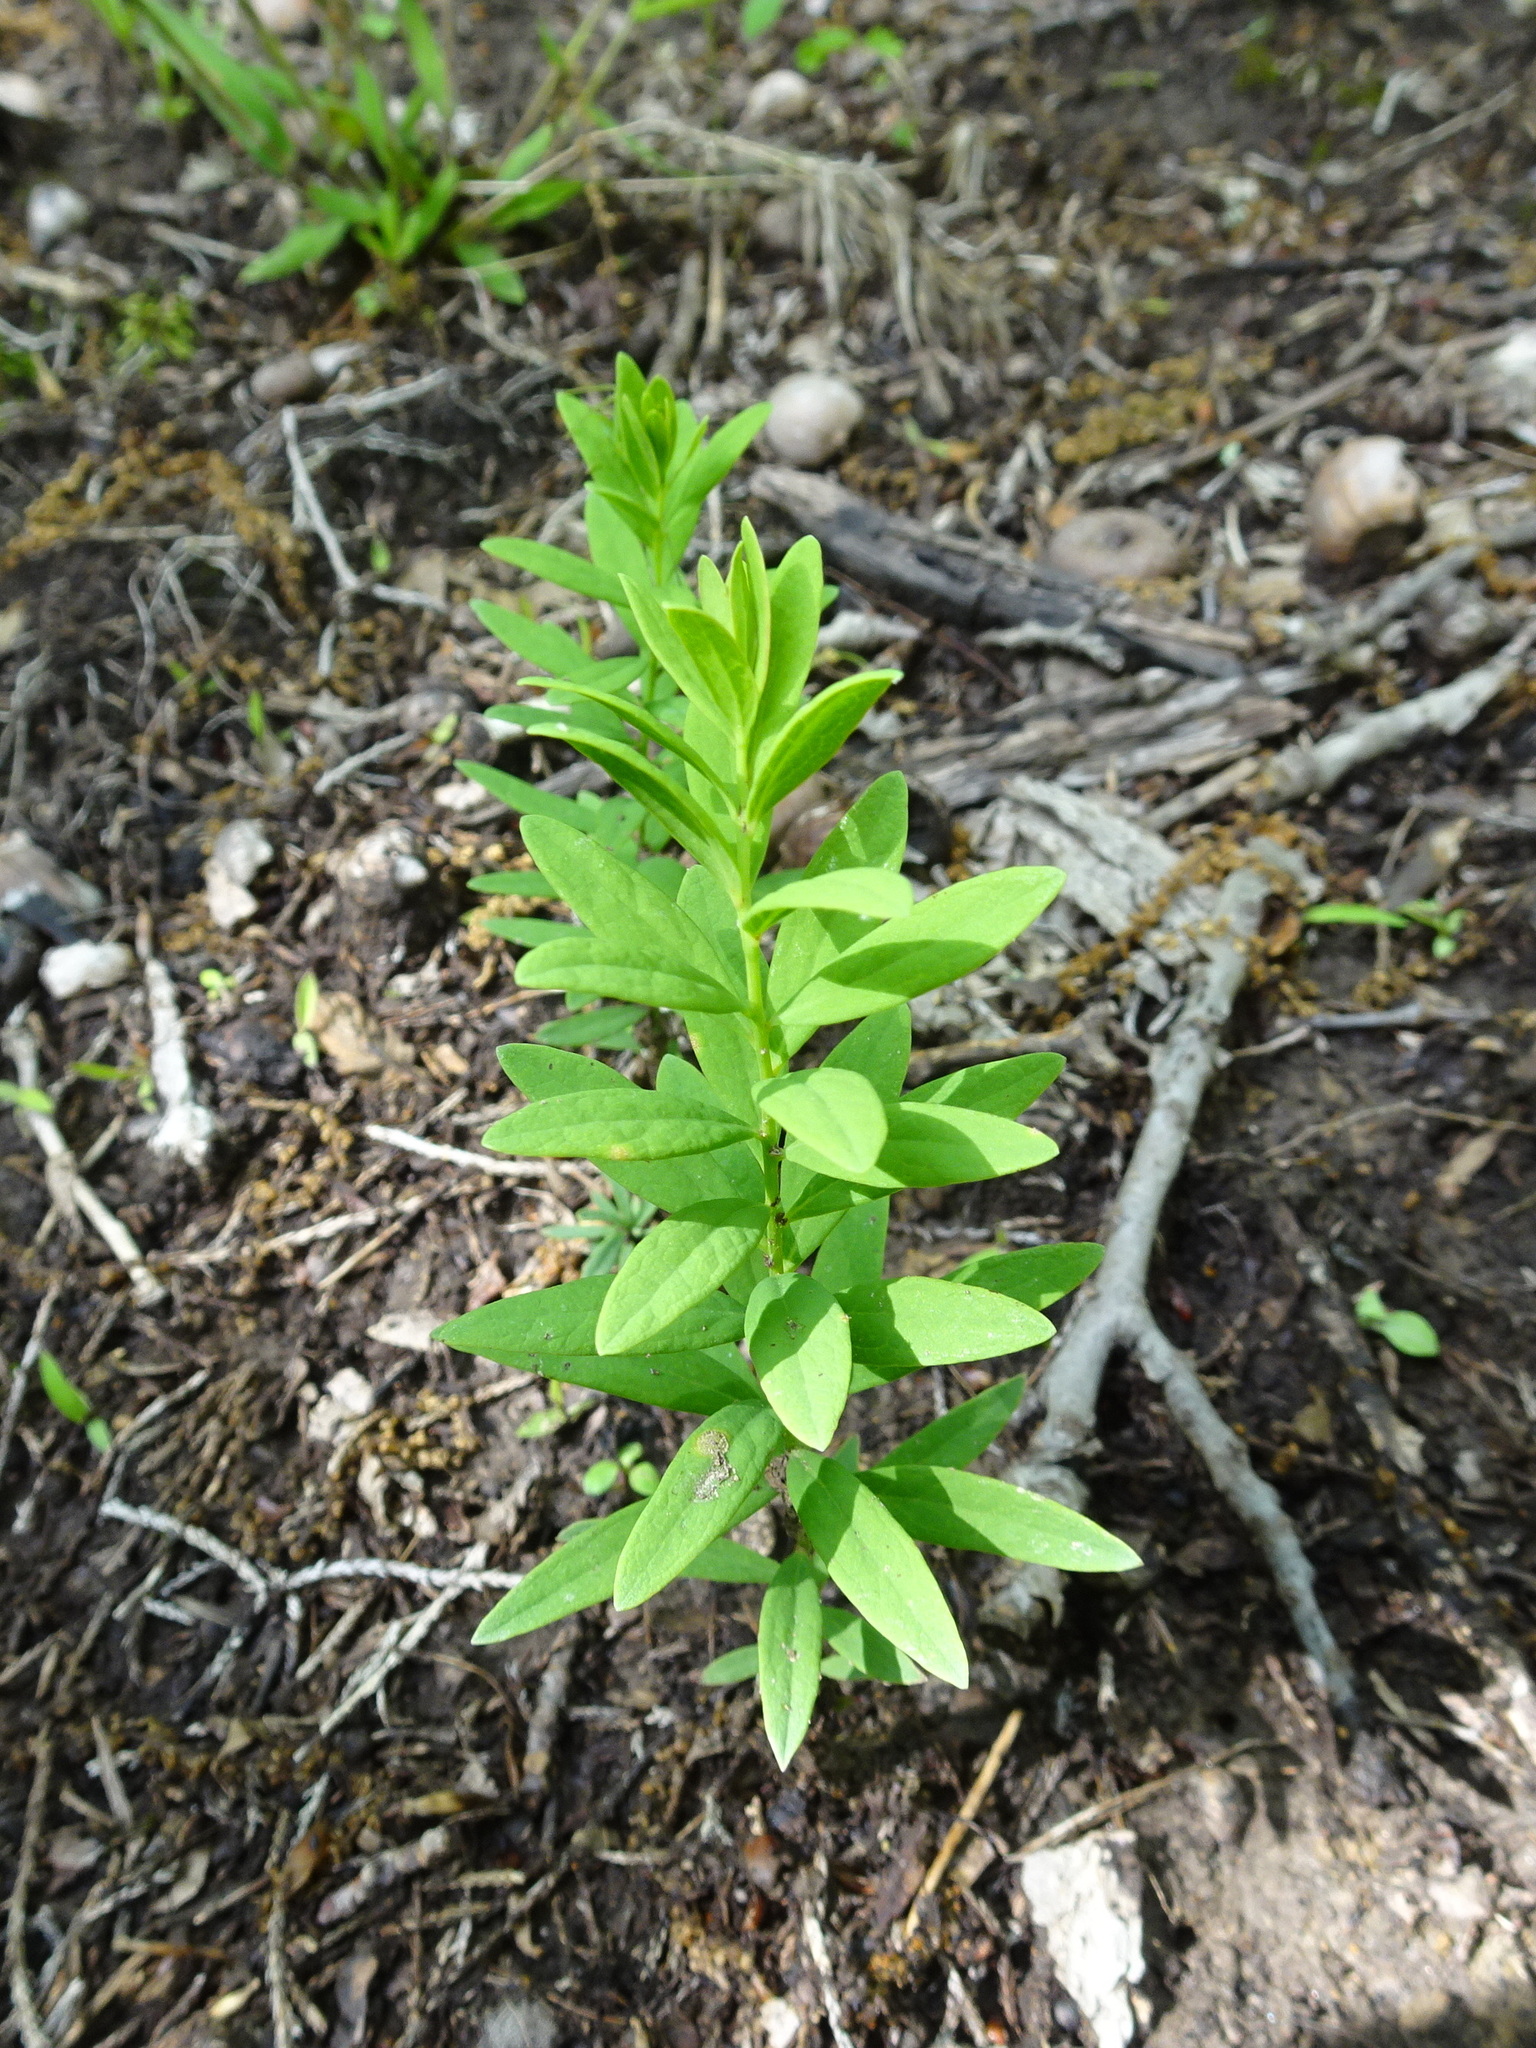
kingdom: Plantae
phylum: Tracheophyta
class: Magnoliopsida
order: Santalales
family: Comandraceae
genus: Comandra
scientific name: Comandra umbellata
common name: Bastard toadflax
